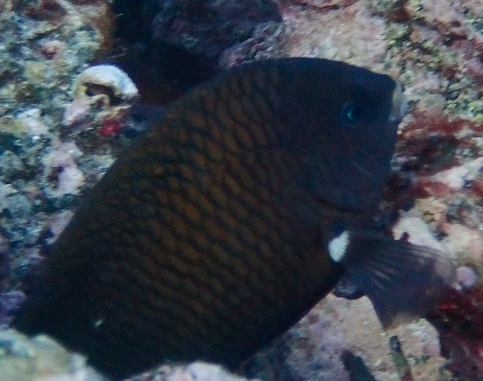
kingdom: Animalia
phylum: Chordata
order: Perciformes
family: Pomacentridae
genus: Stegastes
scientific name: Stegastes acapulcoensis
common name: Acapulco damselfish
